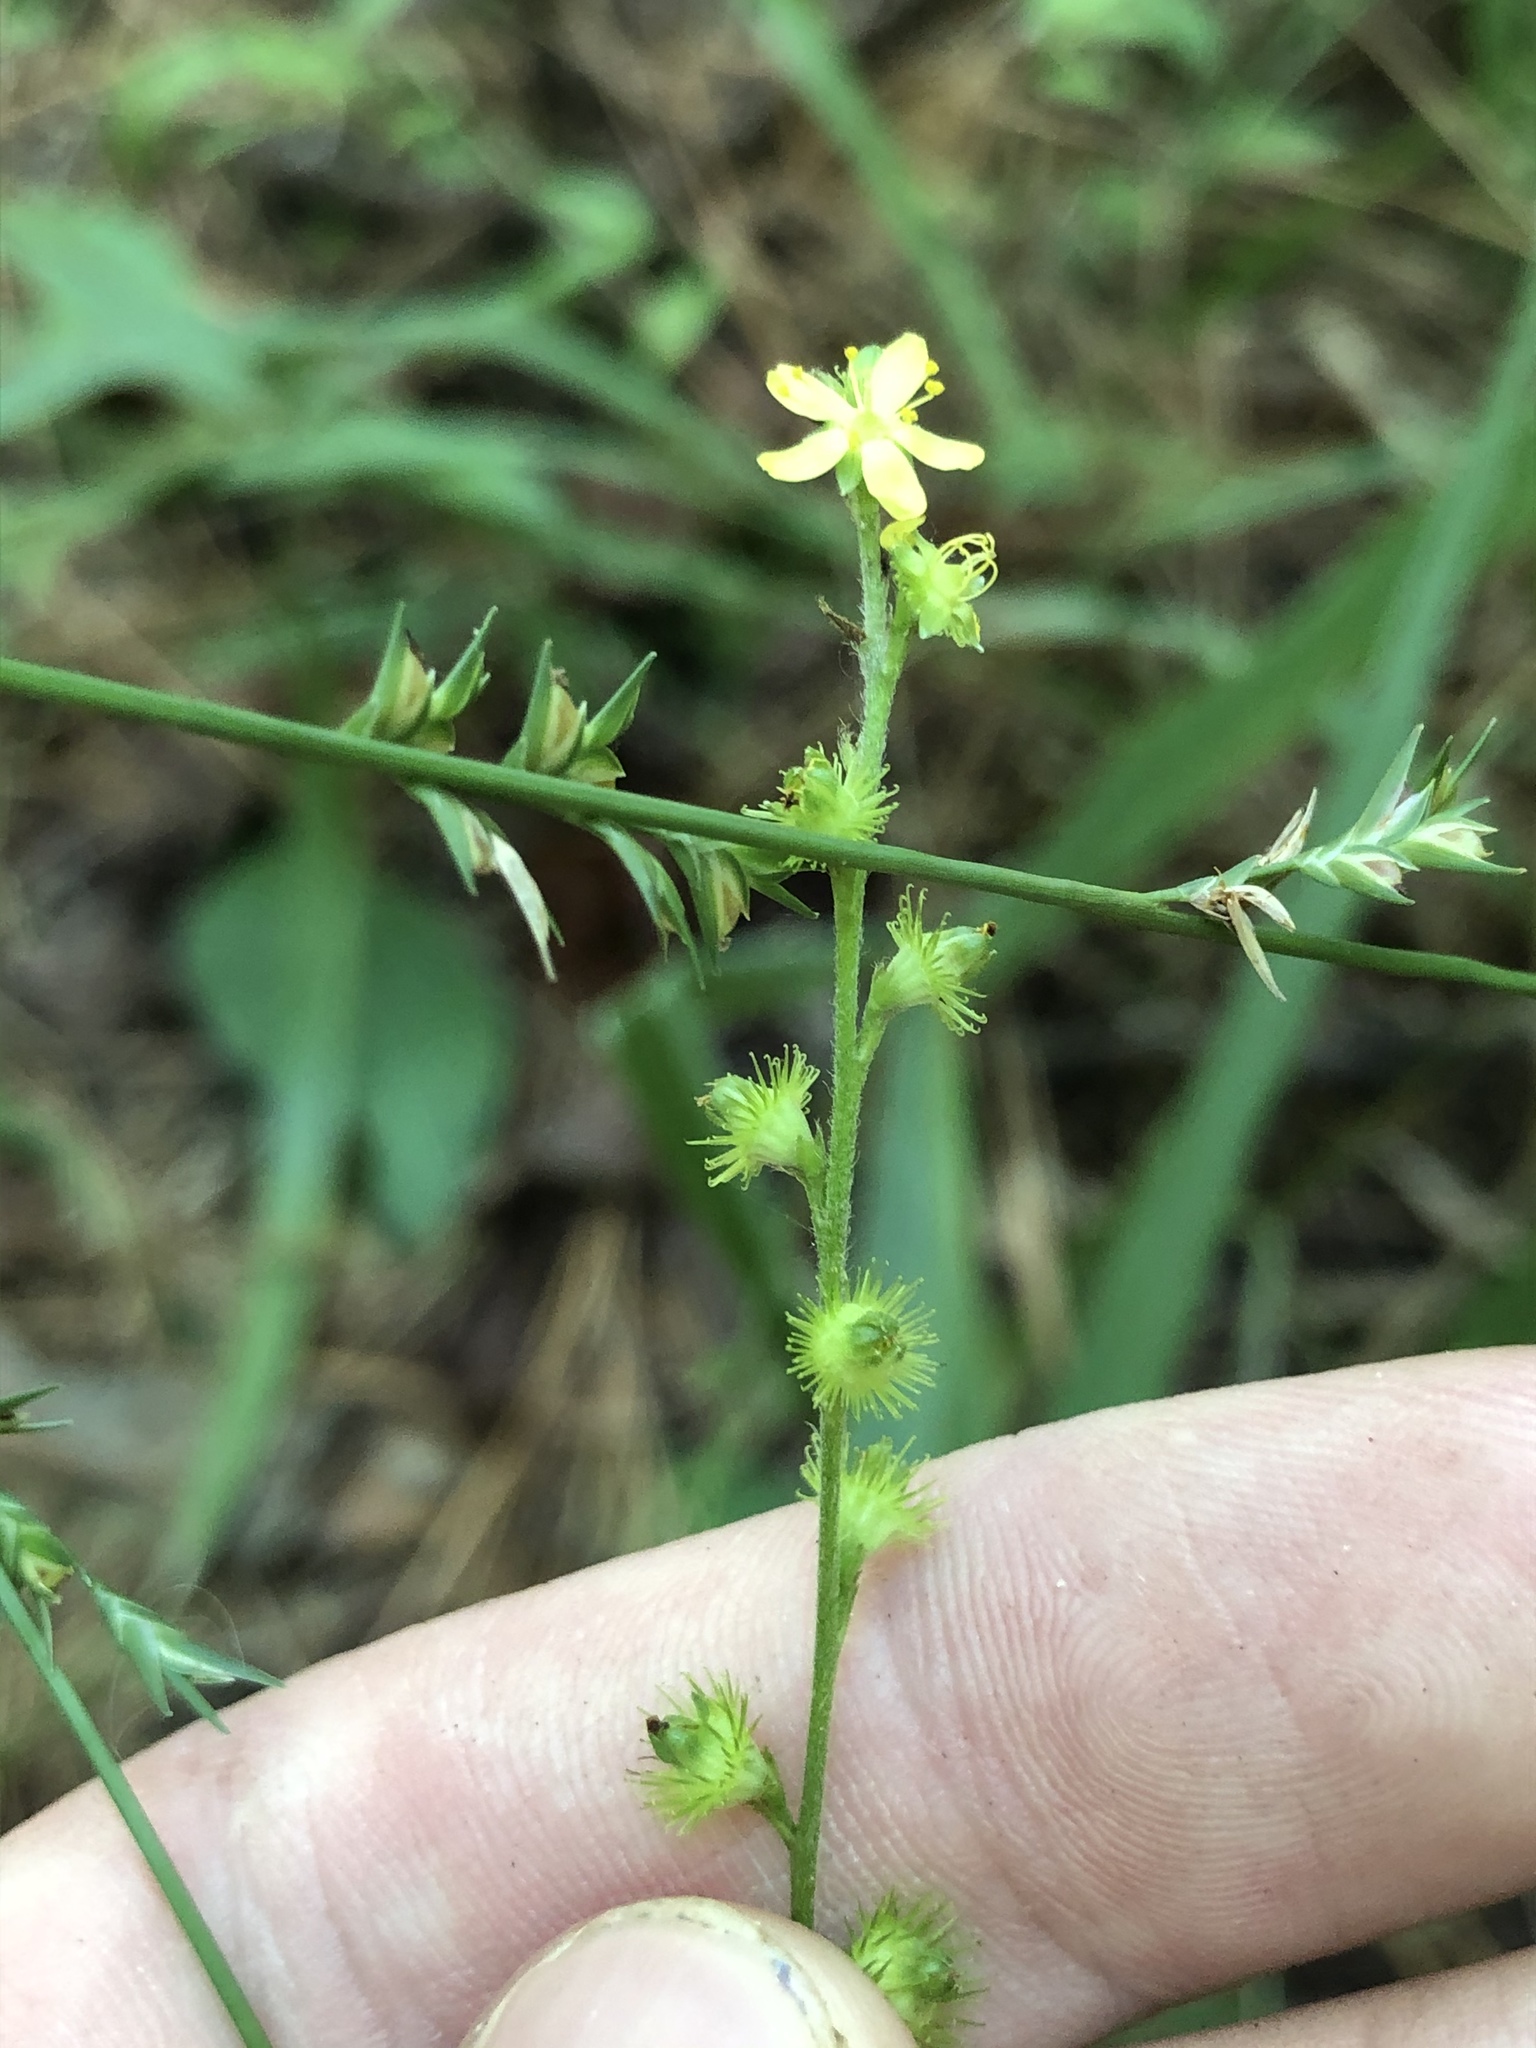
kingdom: Plantae
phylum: Tracheophyta
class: Magnoliopsida
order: Rosales
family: Rosaceae
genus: Agrimonia
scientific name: Agrimonia microcarpa
